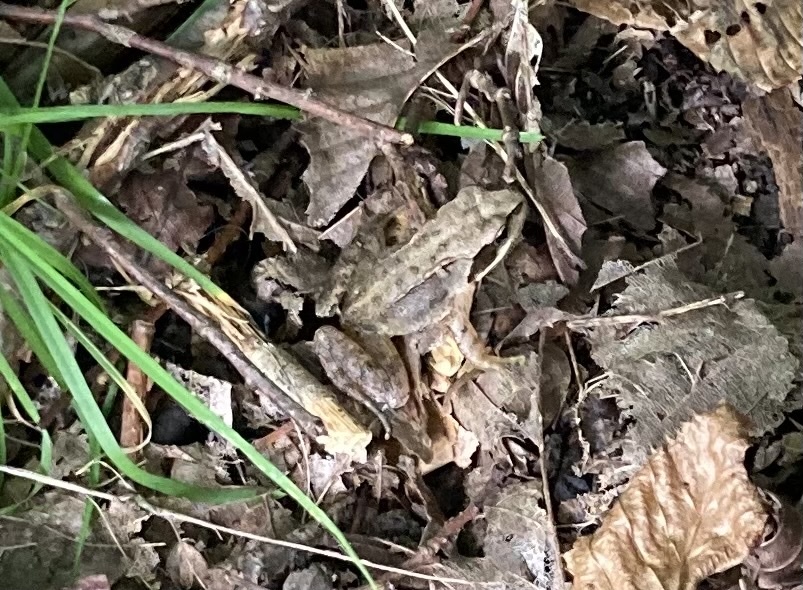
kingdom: Animalia
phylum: Chordata
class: Amphibia
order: Anura
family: Ranidae
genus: Rana
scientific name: Rana temporaria
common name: Common frog
